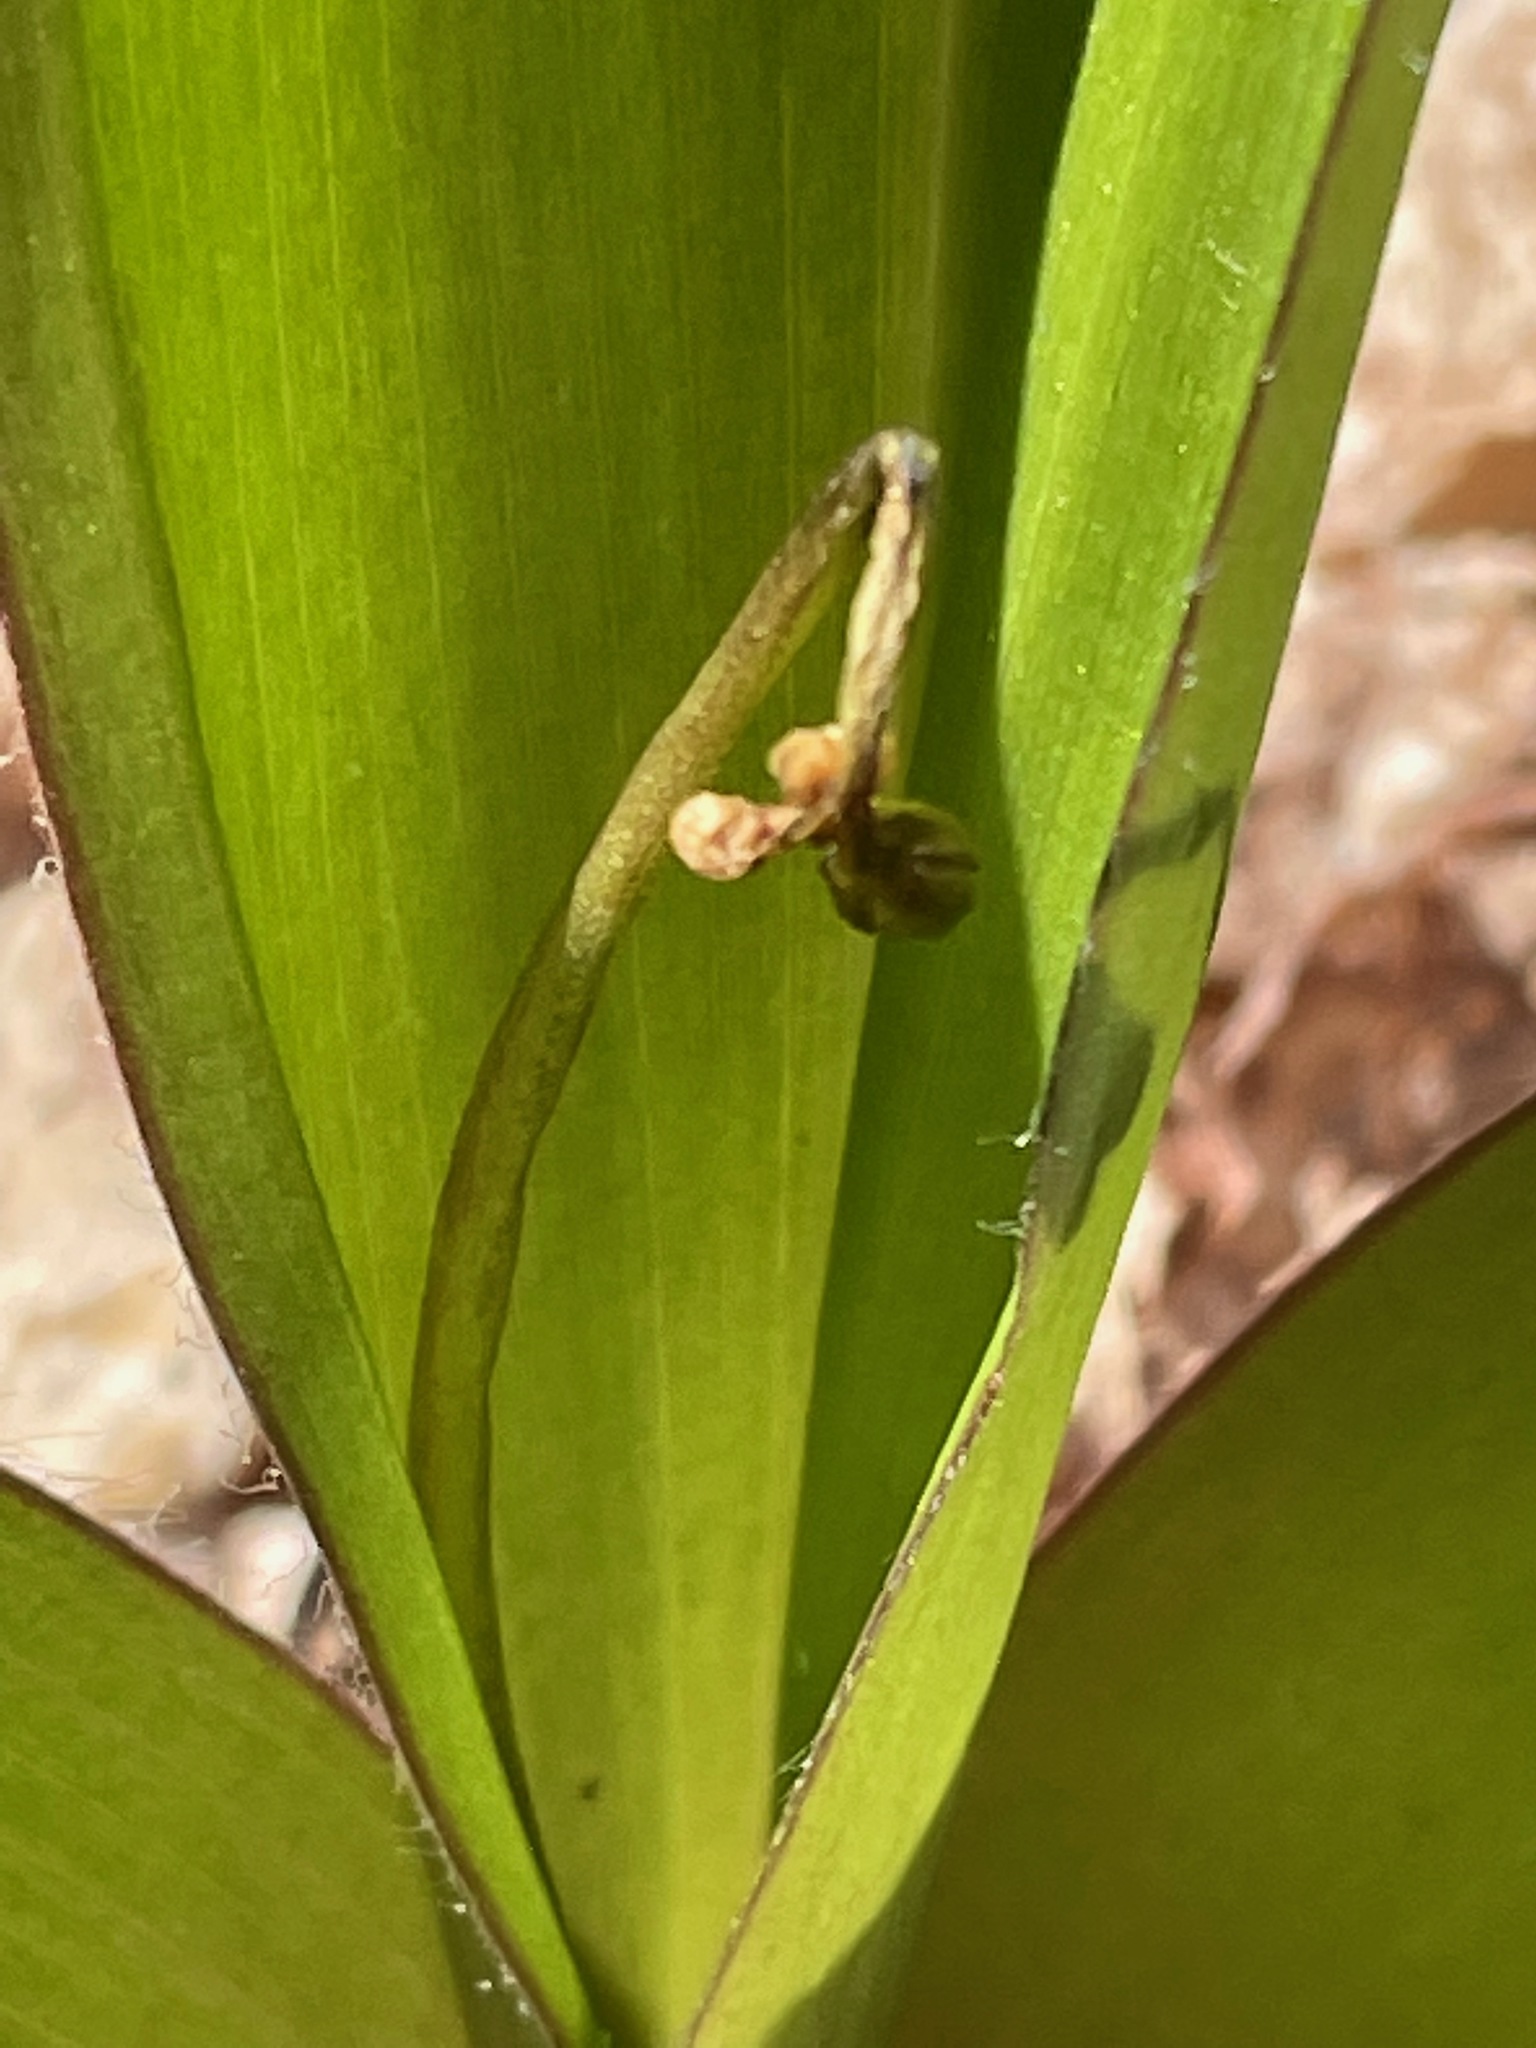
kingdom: Plantae
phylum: Tracheophyta
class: Liliopsida
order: Liliales
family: Liliaceae
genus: Clintonia
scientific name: Clintonia borealis
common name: Yellow clintonia
